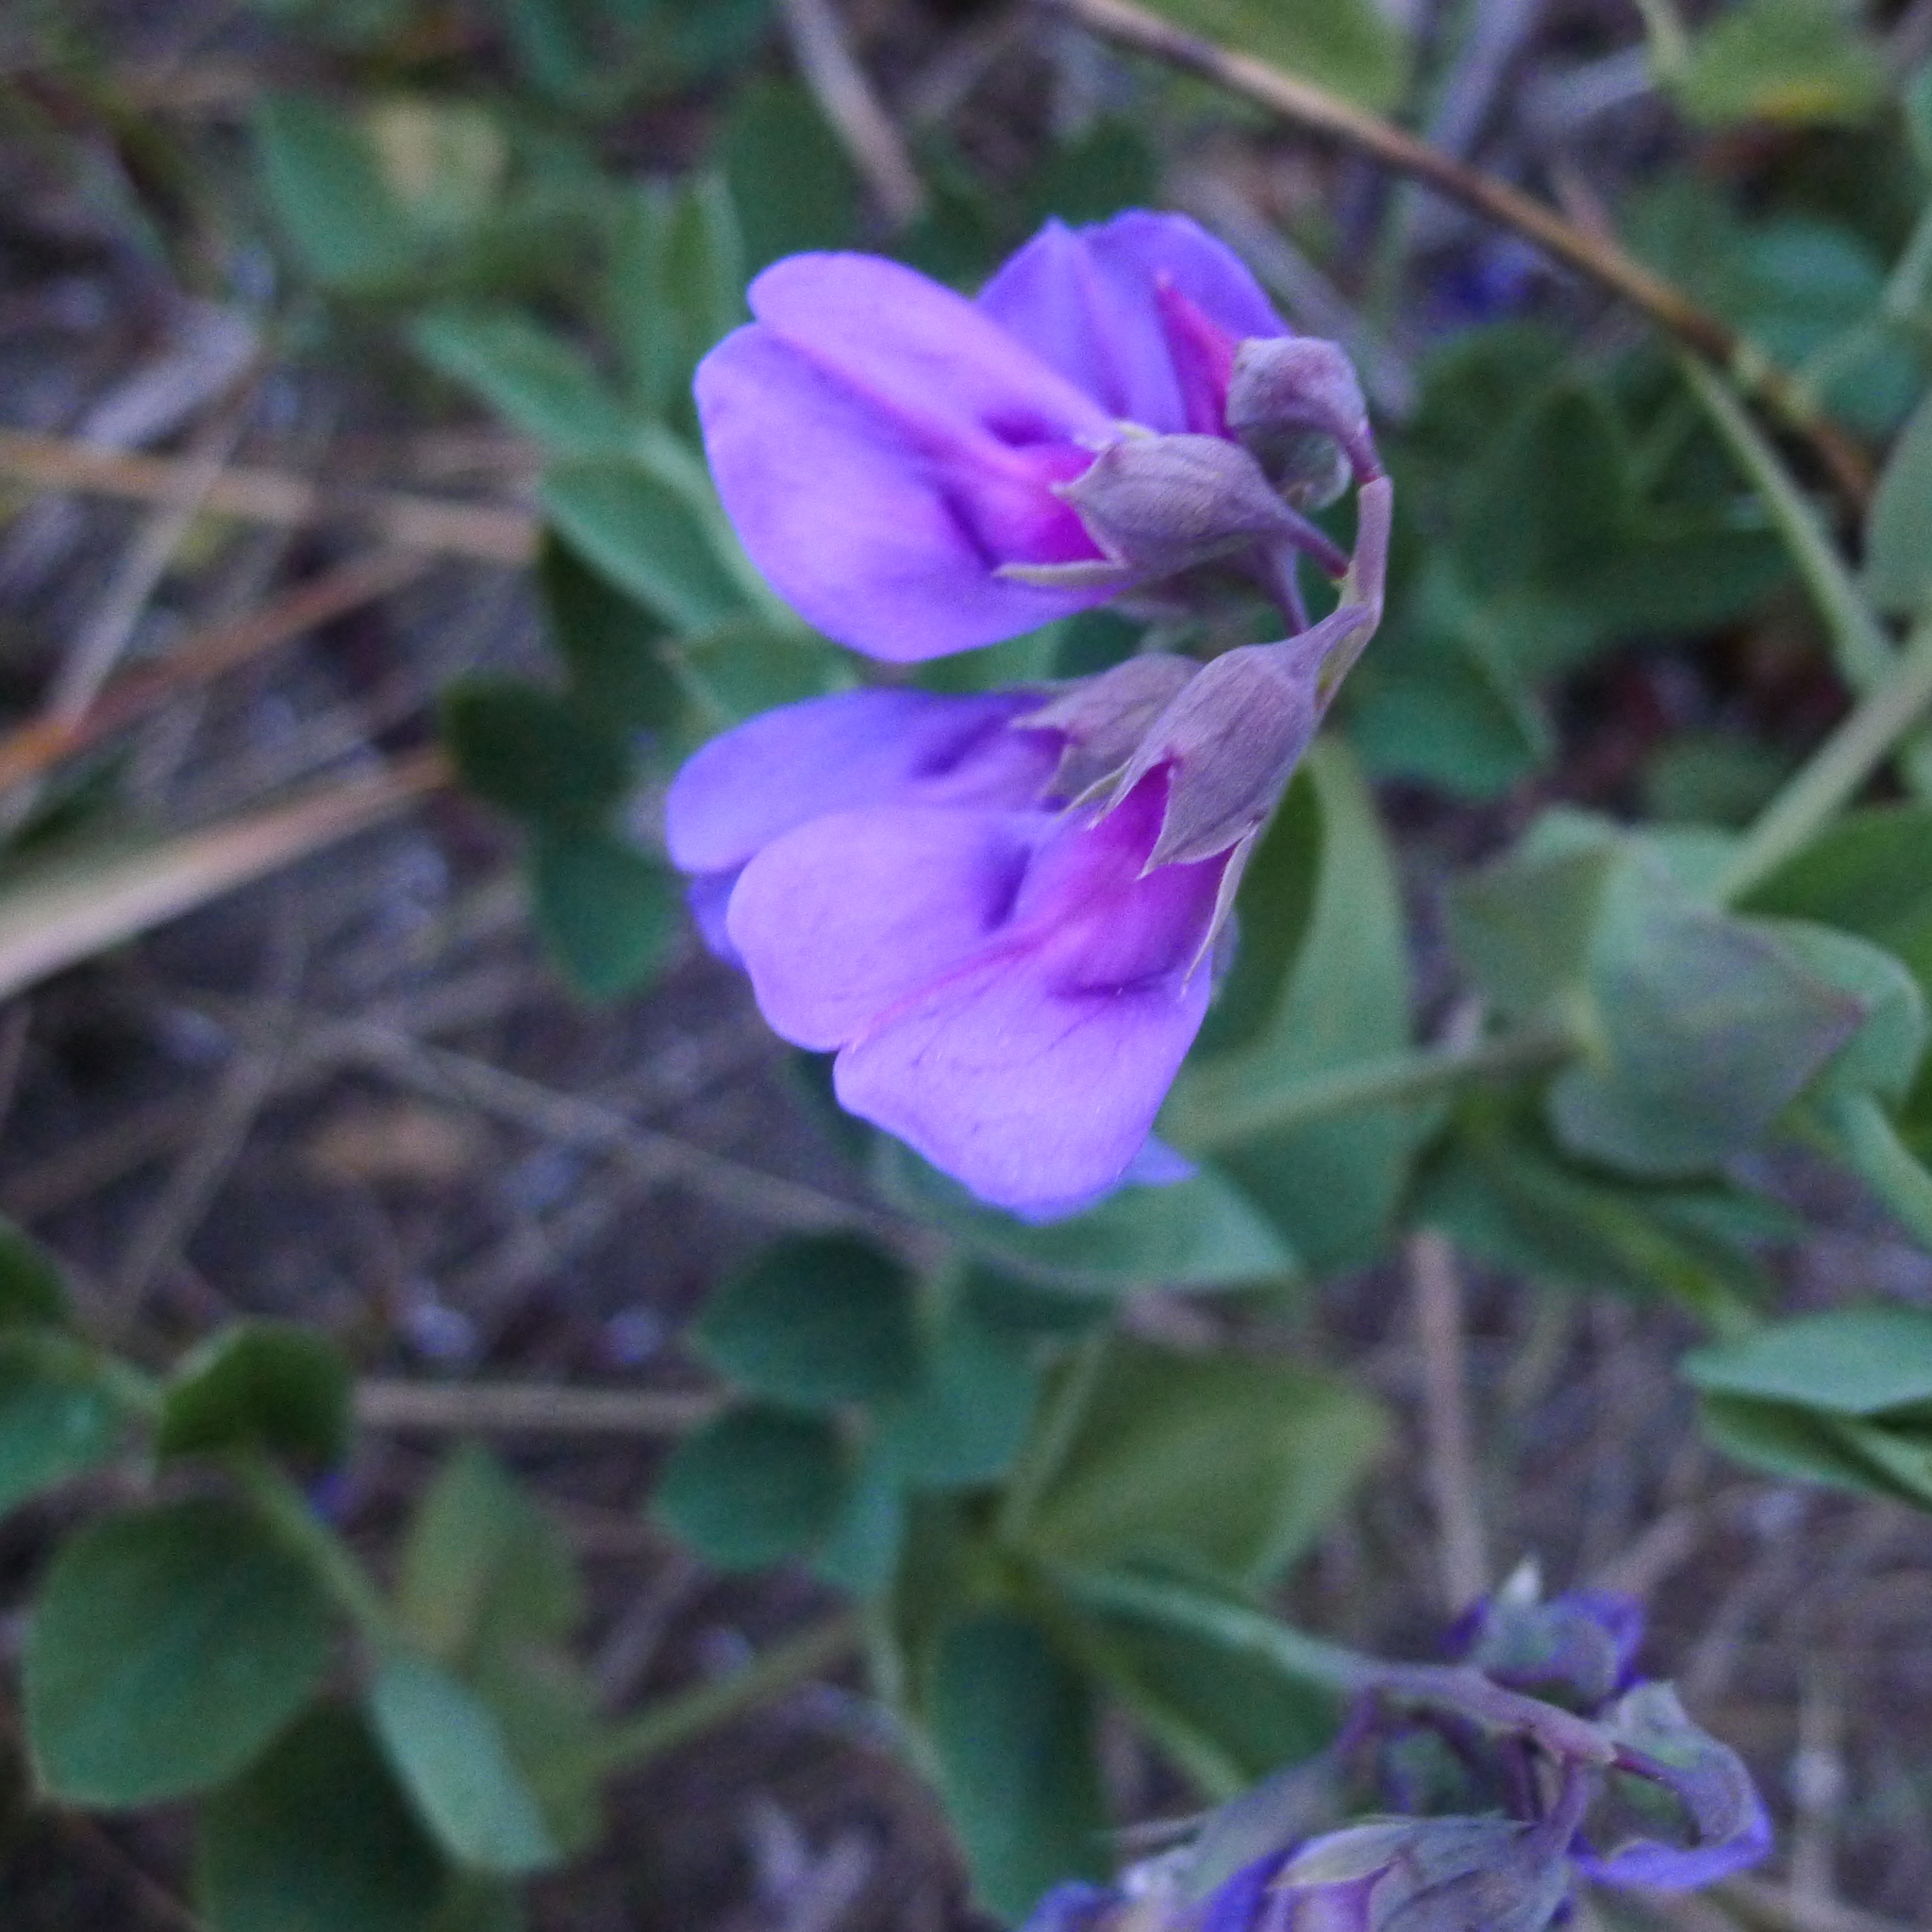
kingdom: Plantae
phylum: Tracheophyta
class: Magnoliopsida
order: Fabales
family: Fabaceae
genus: Lathyrus
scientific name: Lathyrus japonicus
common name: Sea pea
